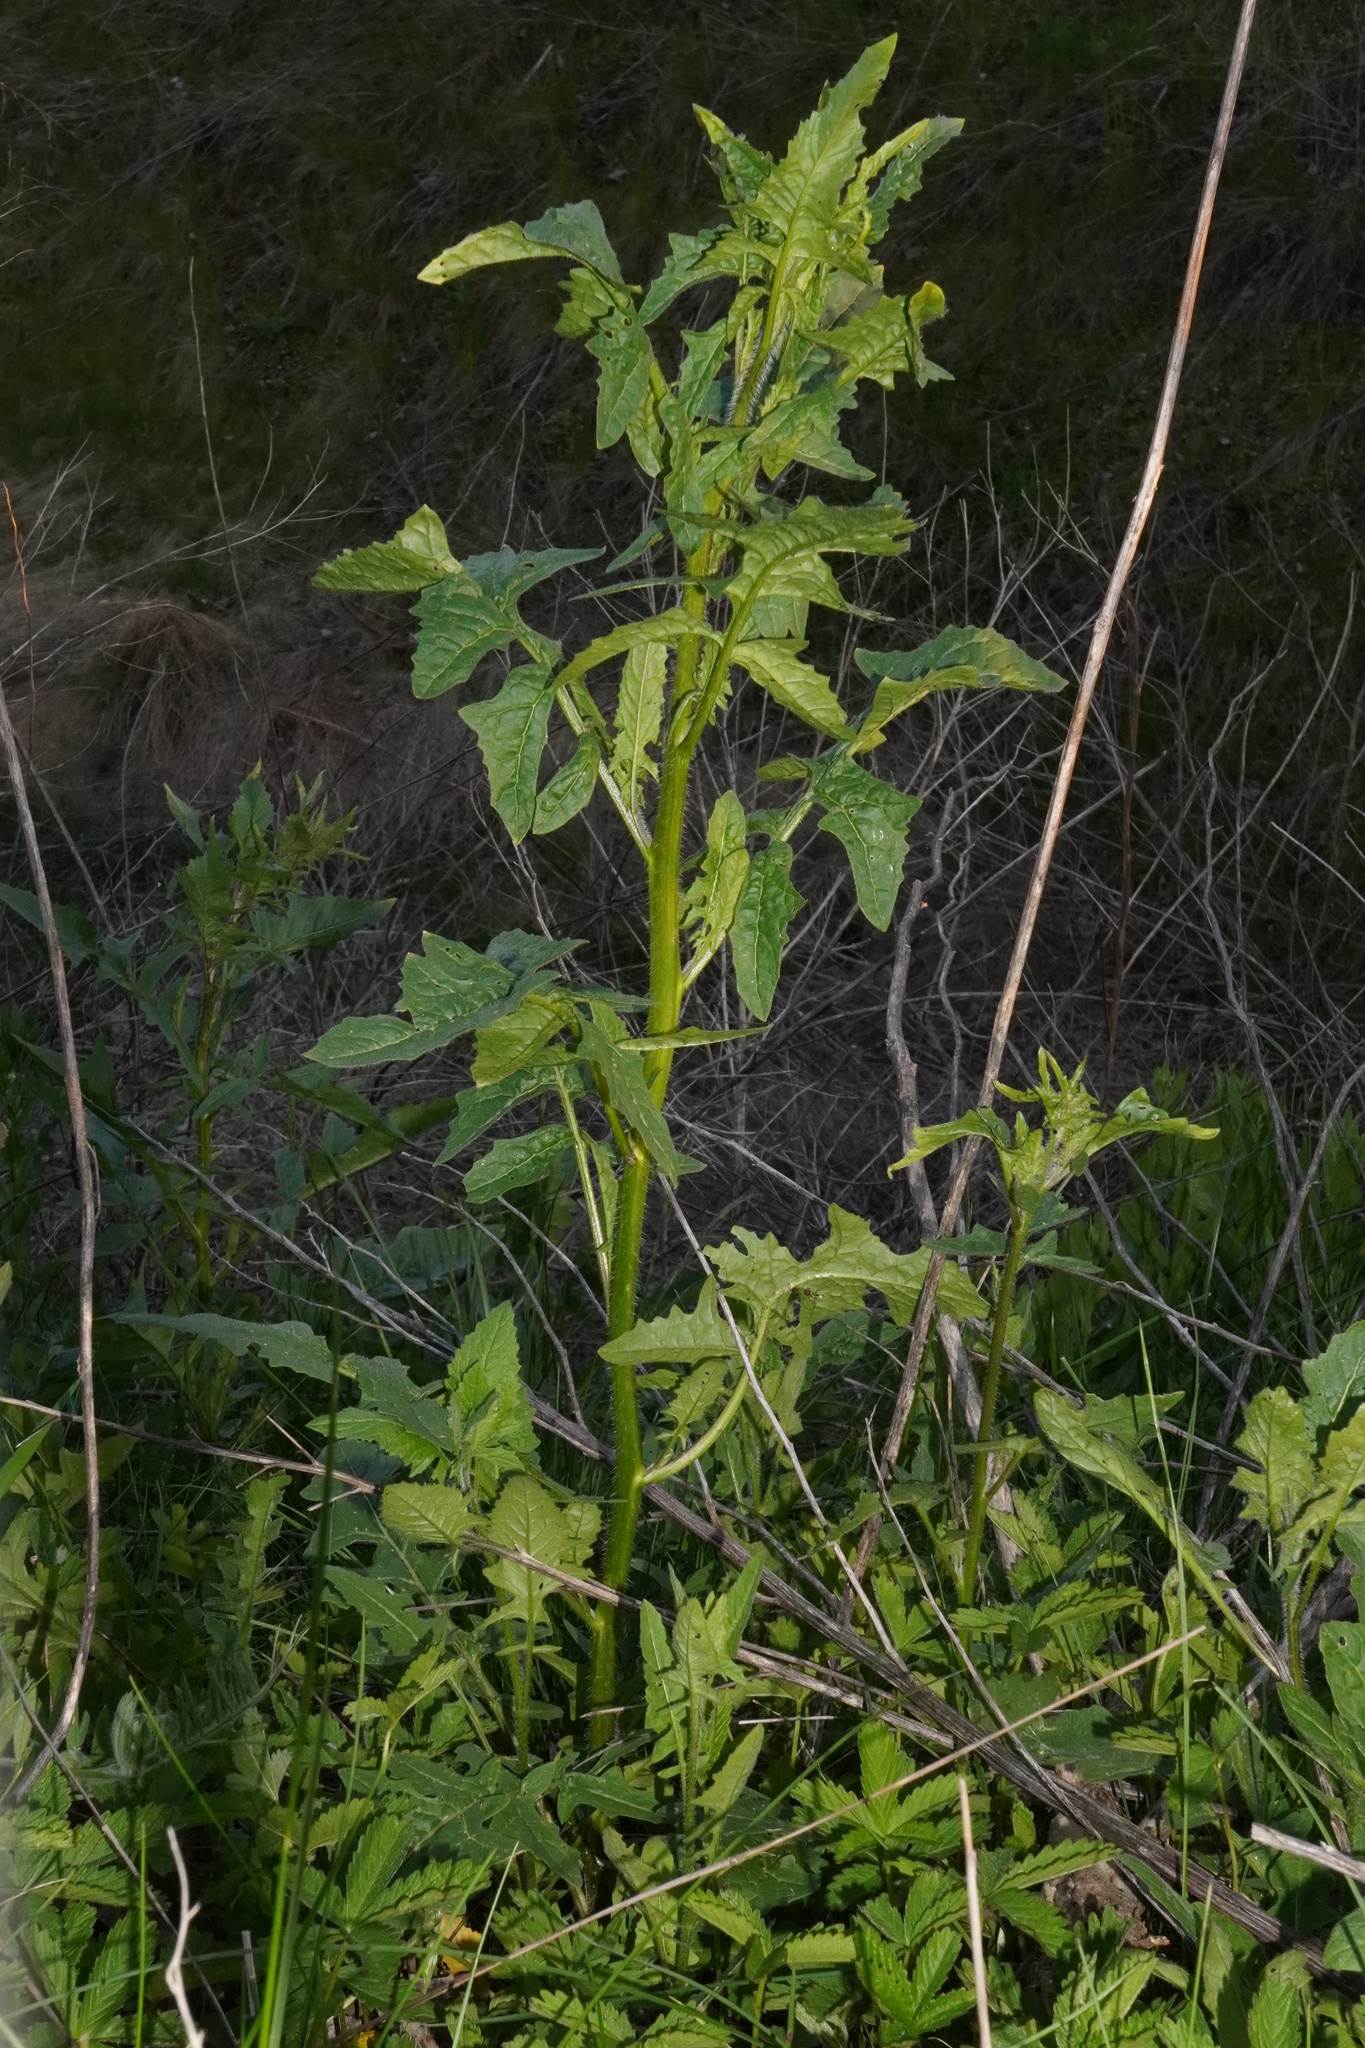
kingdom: Plantae
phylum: Tracheophyta
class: Magnoliopsida
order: Brassicales
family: Brassicaceae
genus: Sisymbrium
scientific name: Sisymbrium loeselii
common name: False london-rocket
